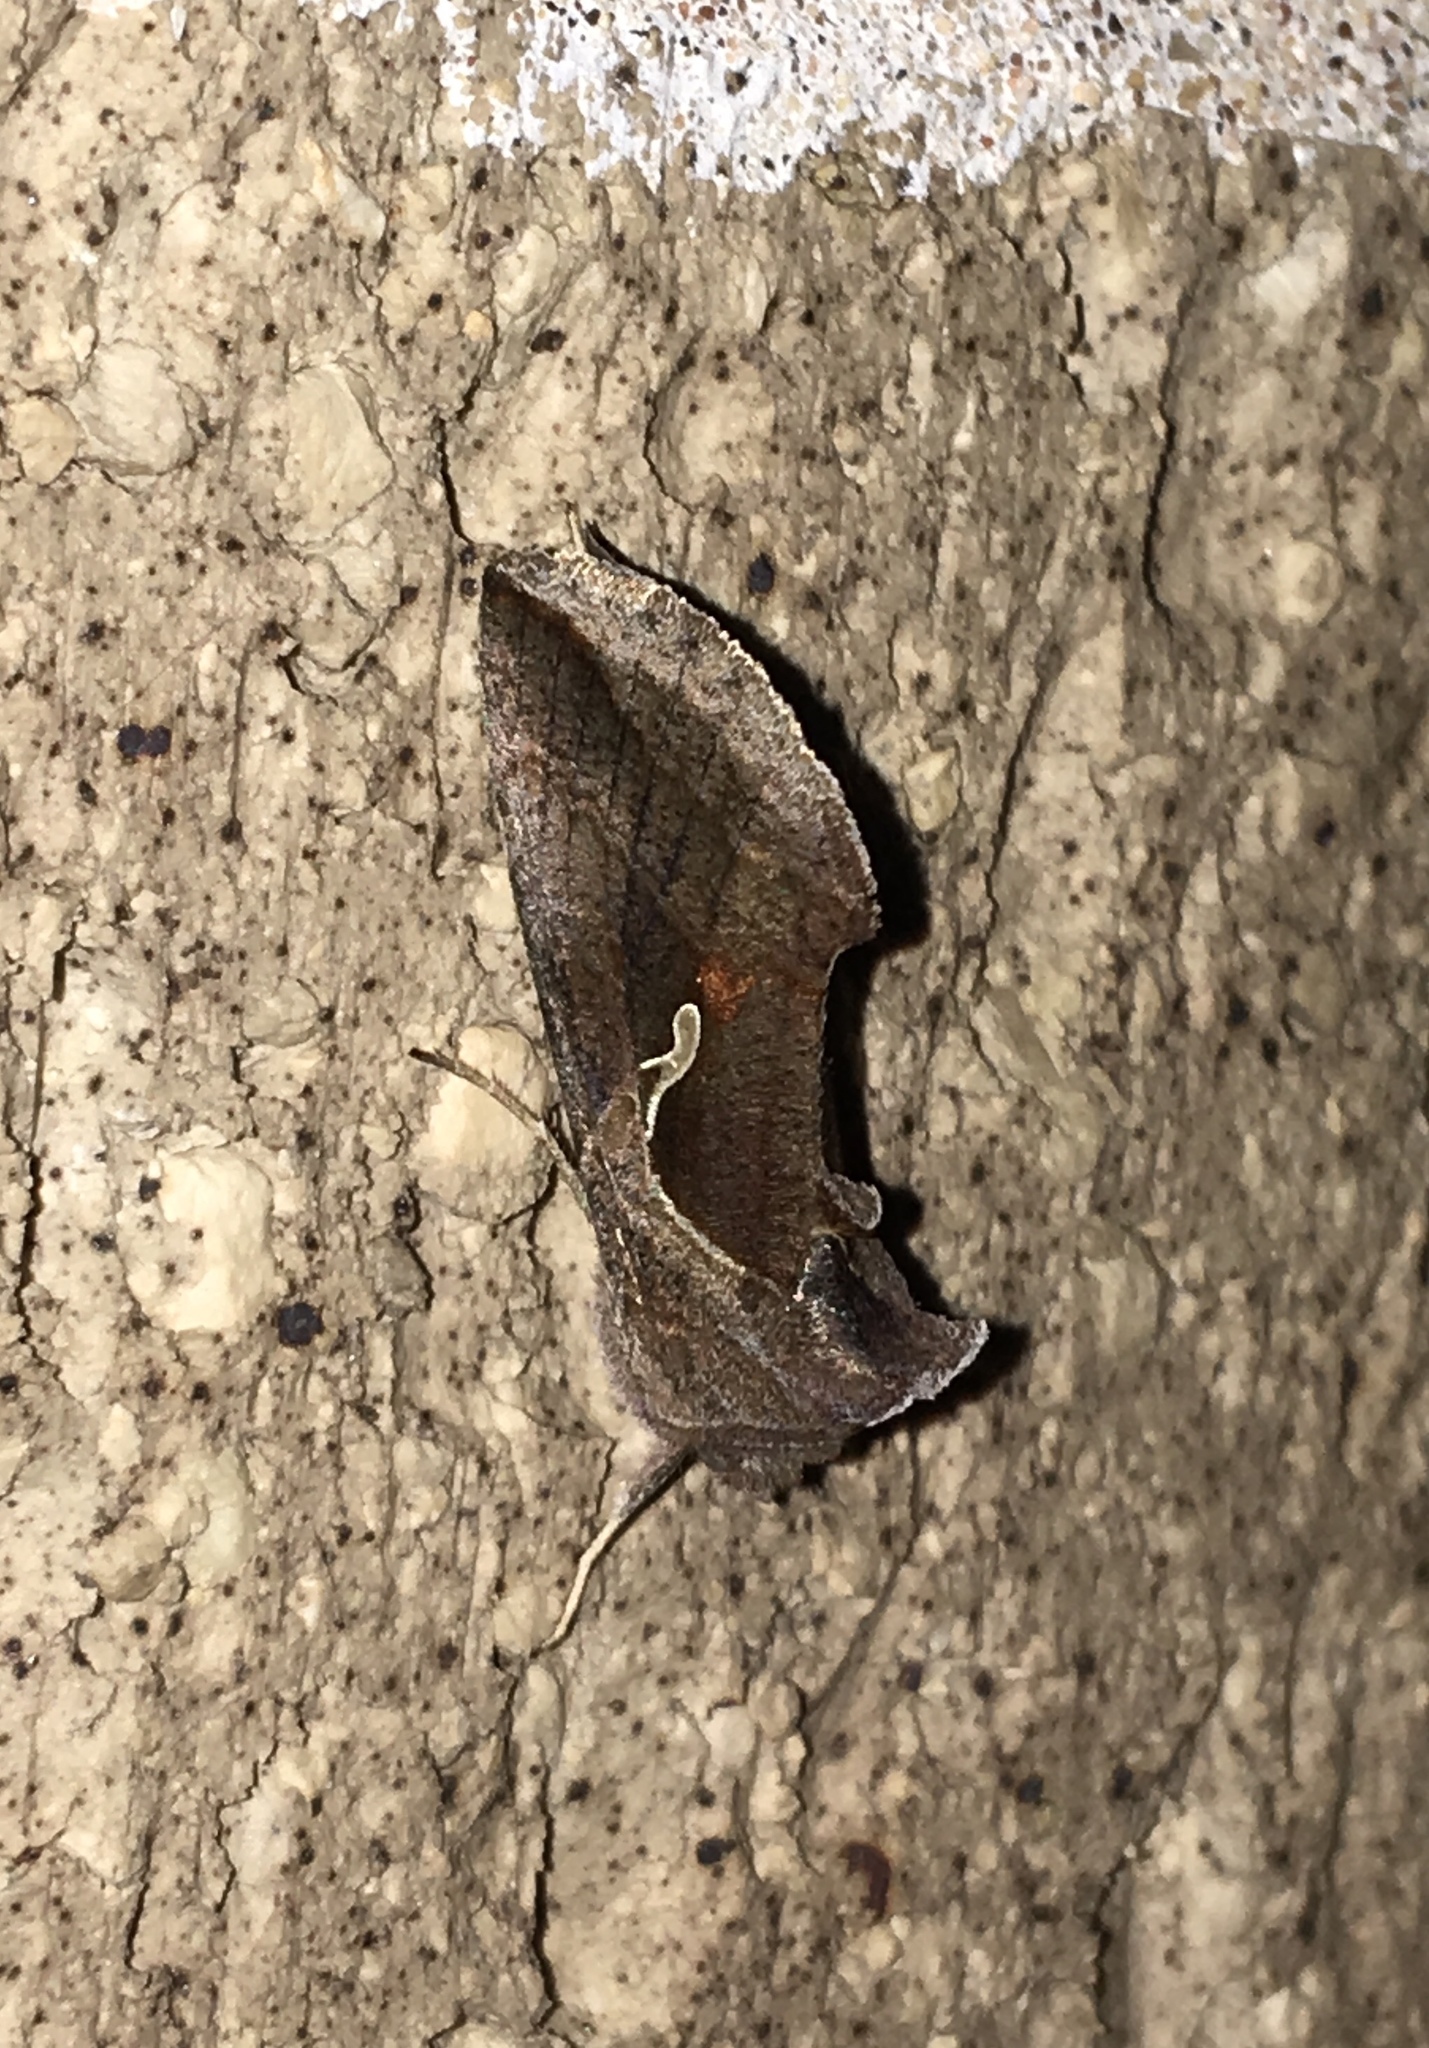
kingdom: Animalia
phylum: Arthropoda
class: Insecta
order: Lepidoptera
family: Noctuidae
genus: Anagrapha
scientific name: Anagrapha falcifera
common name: Celery looper
